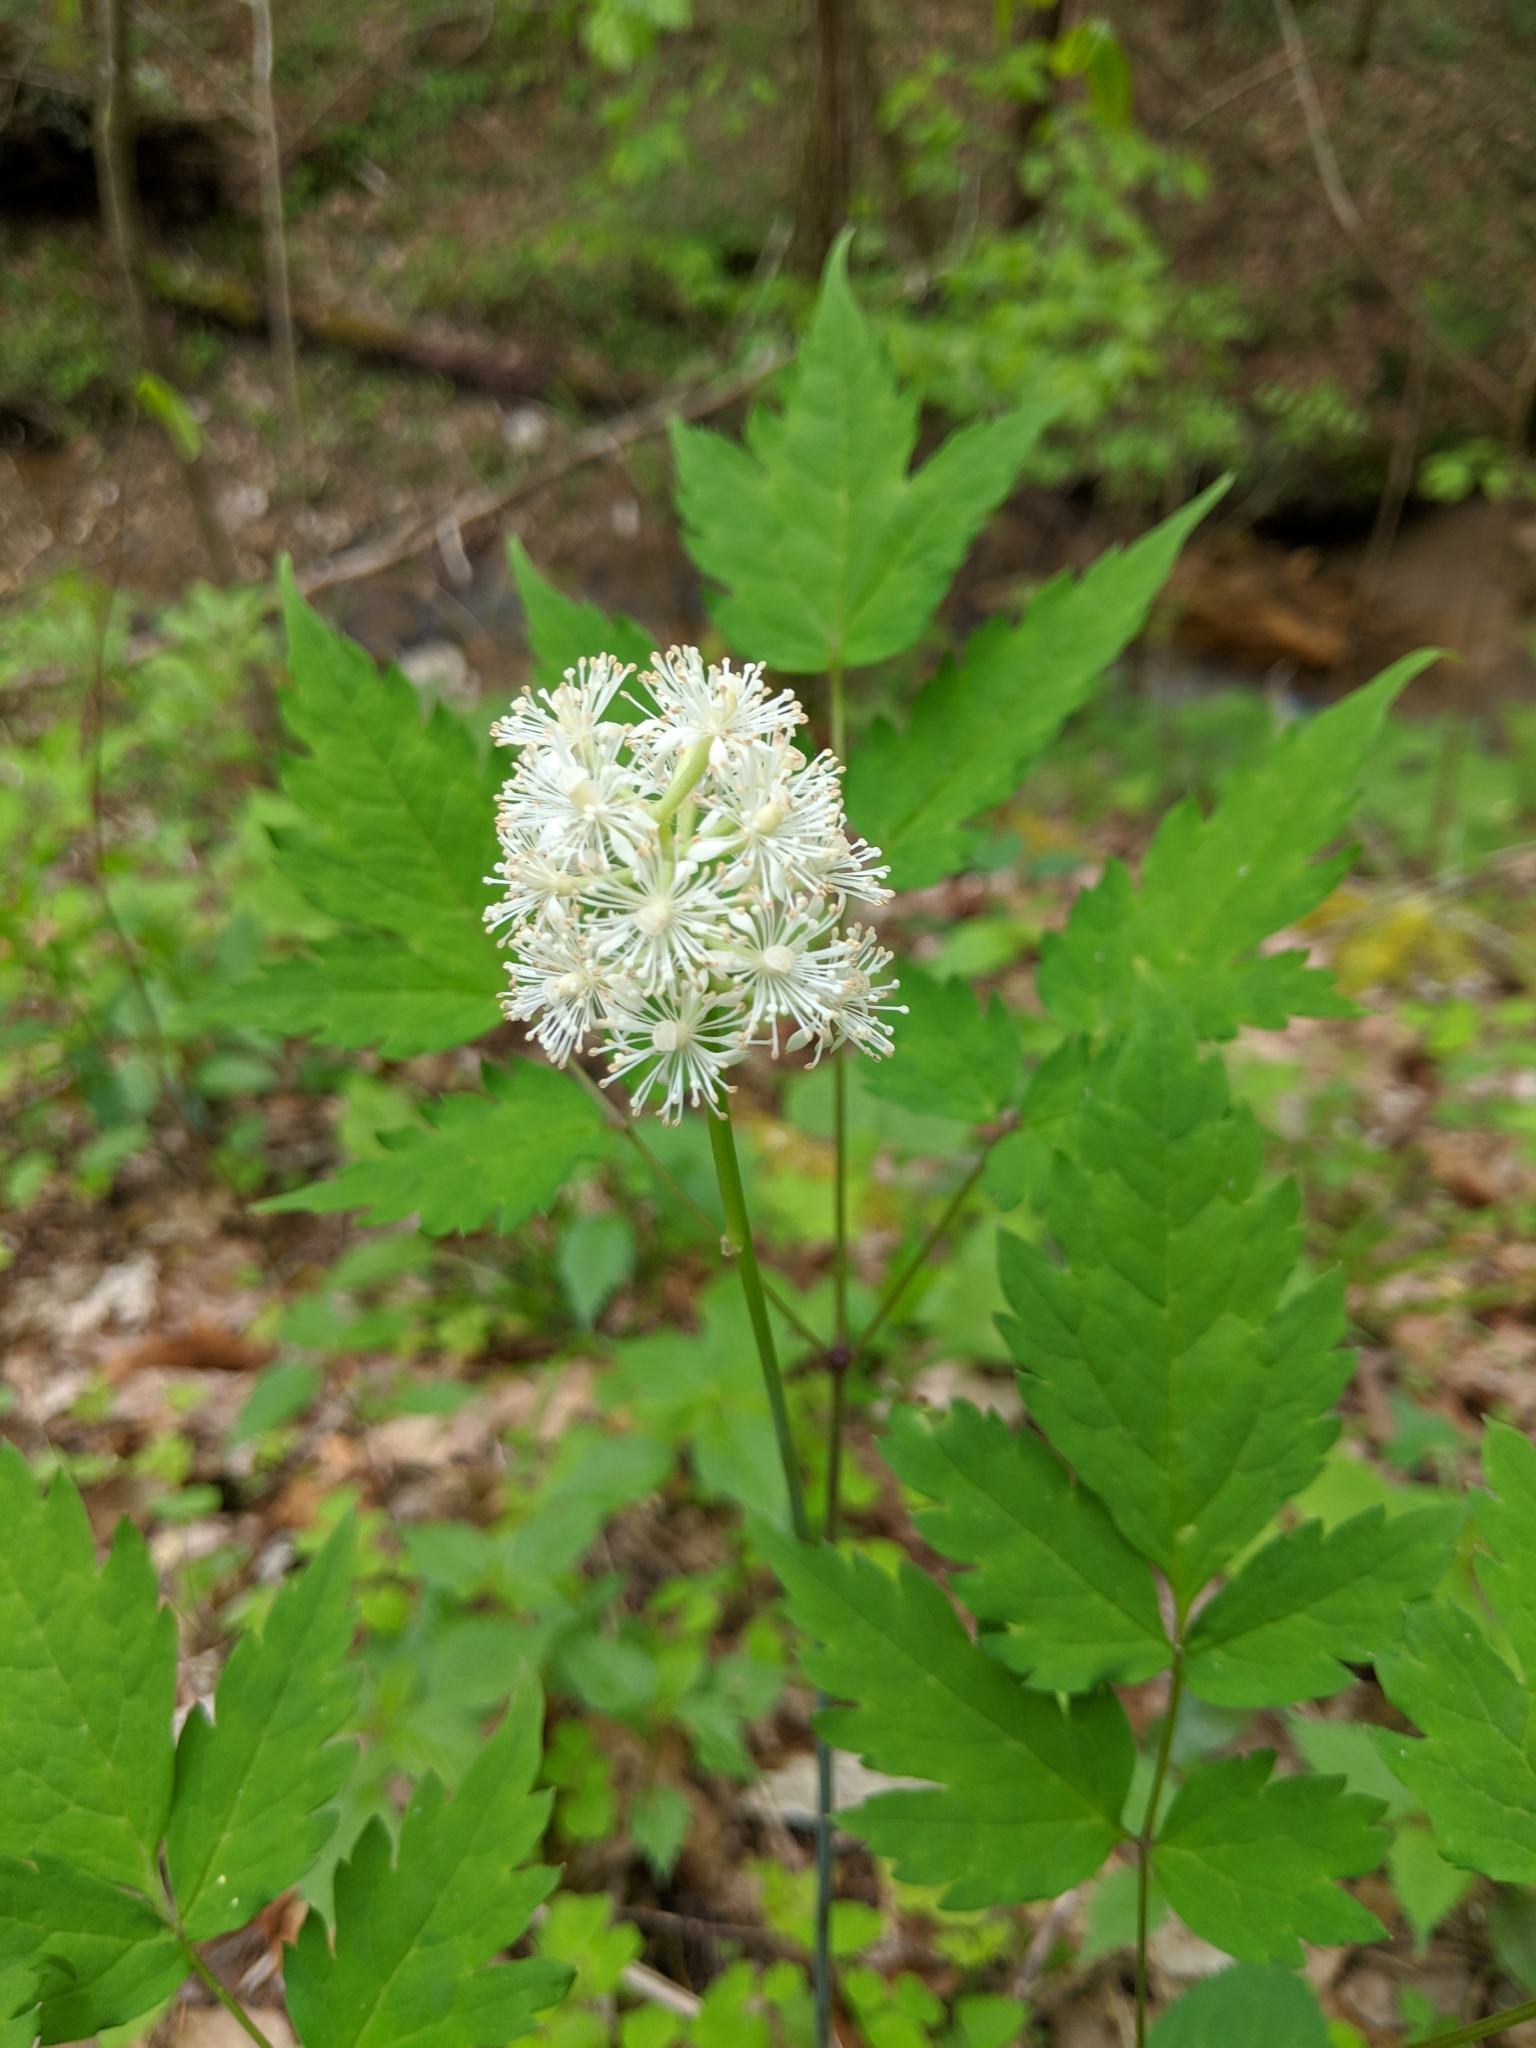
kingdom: Plantae
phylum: Tracheophyta
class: Magnoliopsida
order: Ranunculales
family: Ranunculaceae
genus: Actaea
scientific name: Actaea pachypoda
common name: Doll's-eyes
